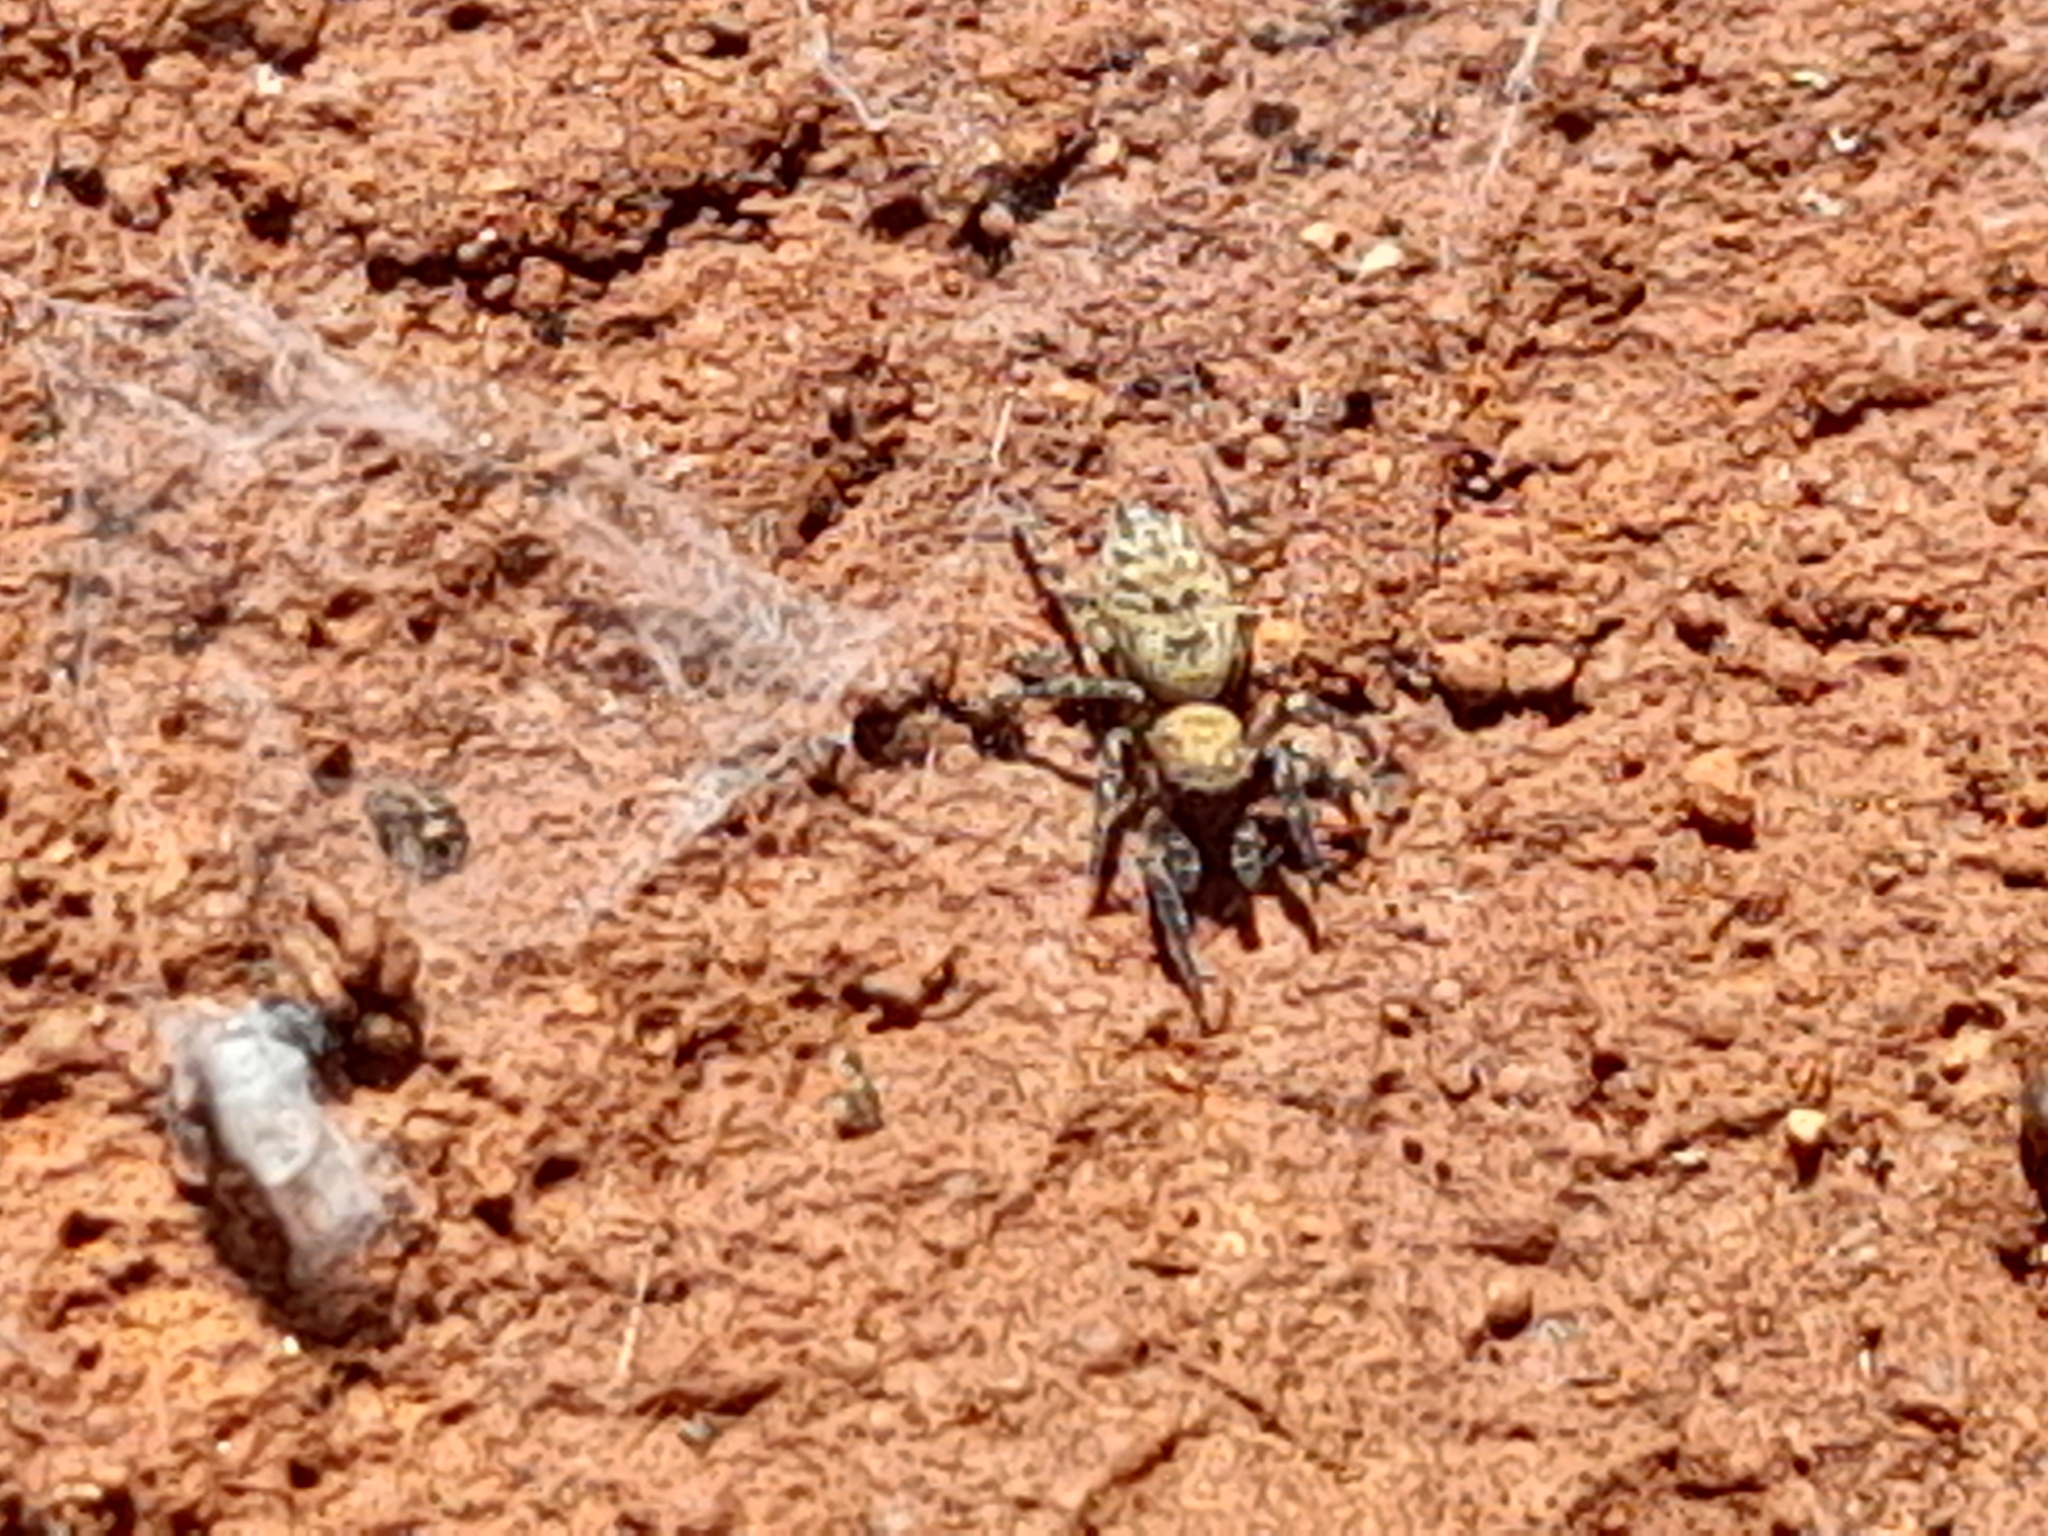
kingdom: Animalia
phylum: Arthropoda
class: Arachnida
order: Araneae
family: Salticidae
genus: Cyrba
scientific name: Cyrba algerina
